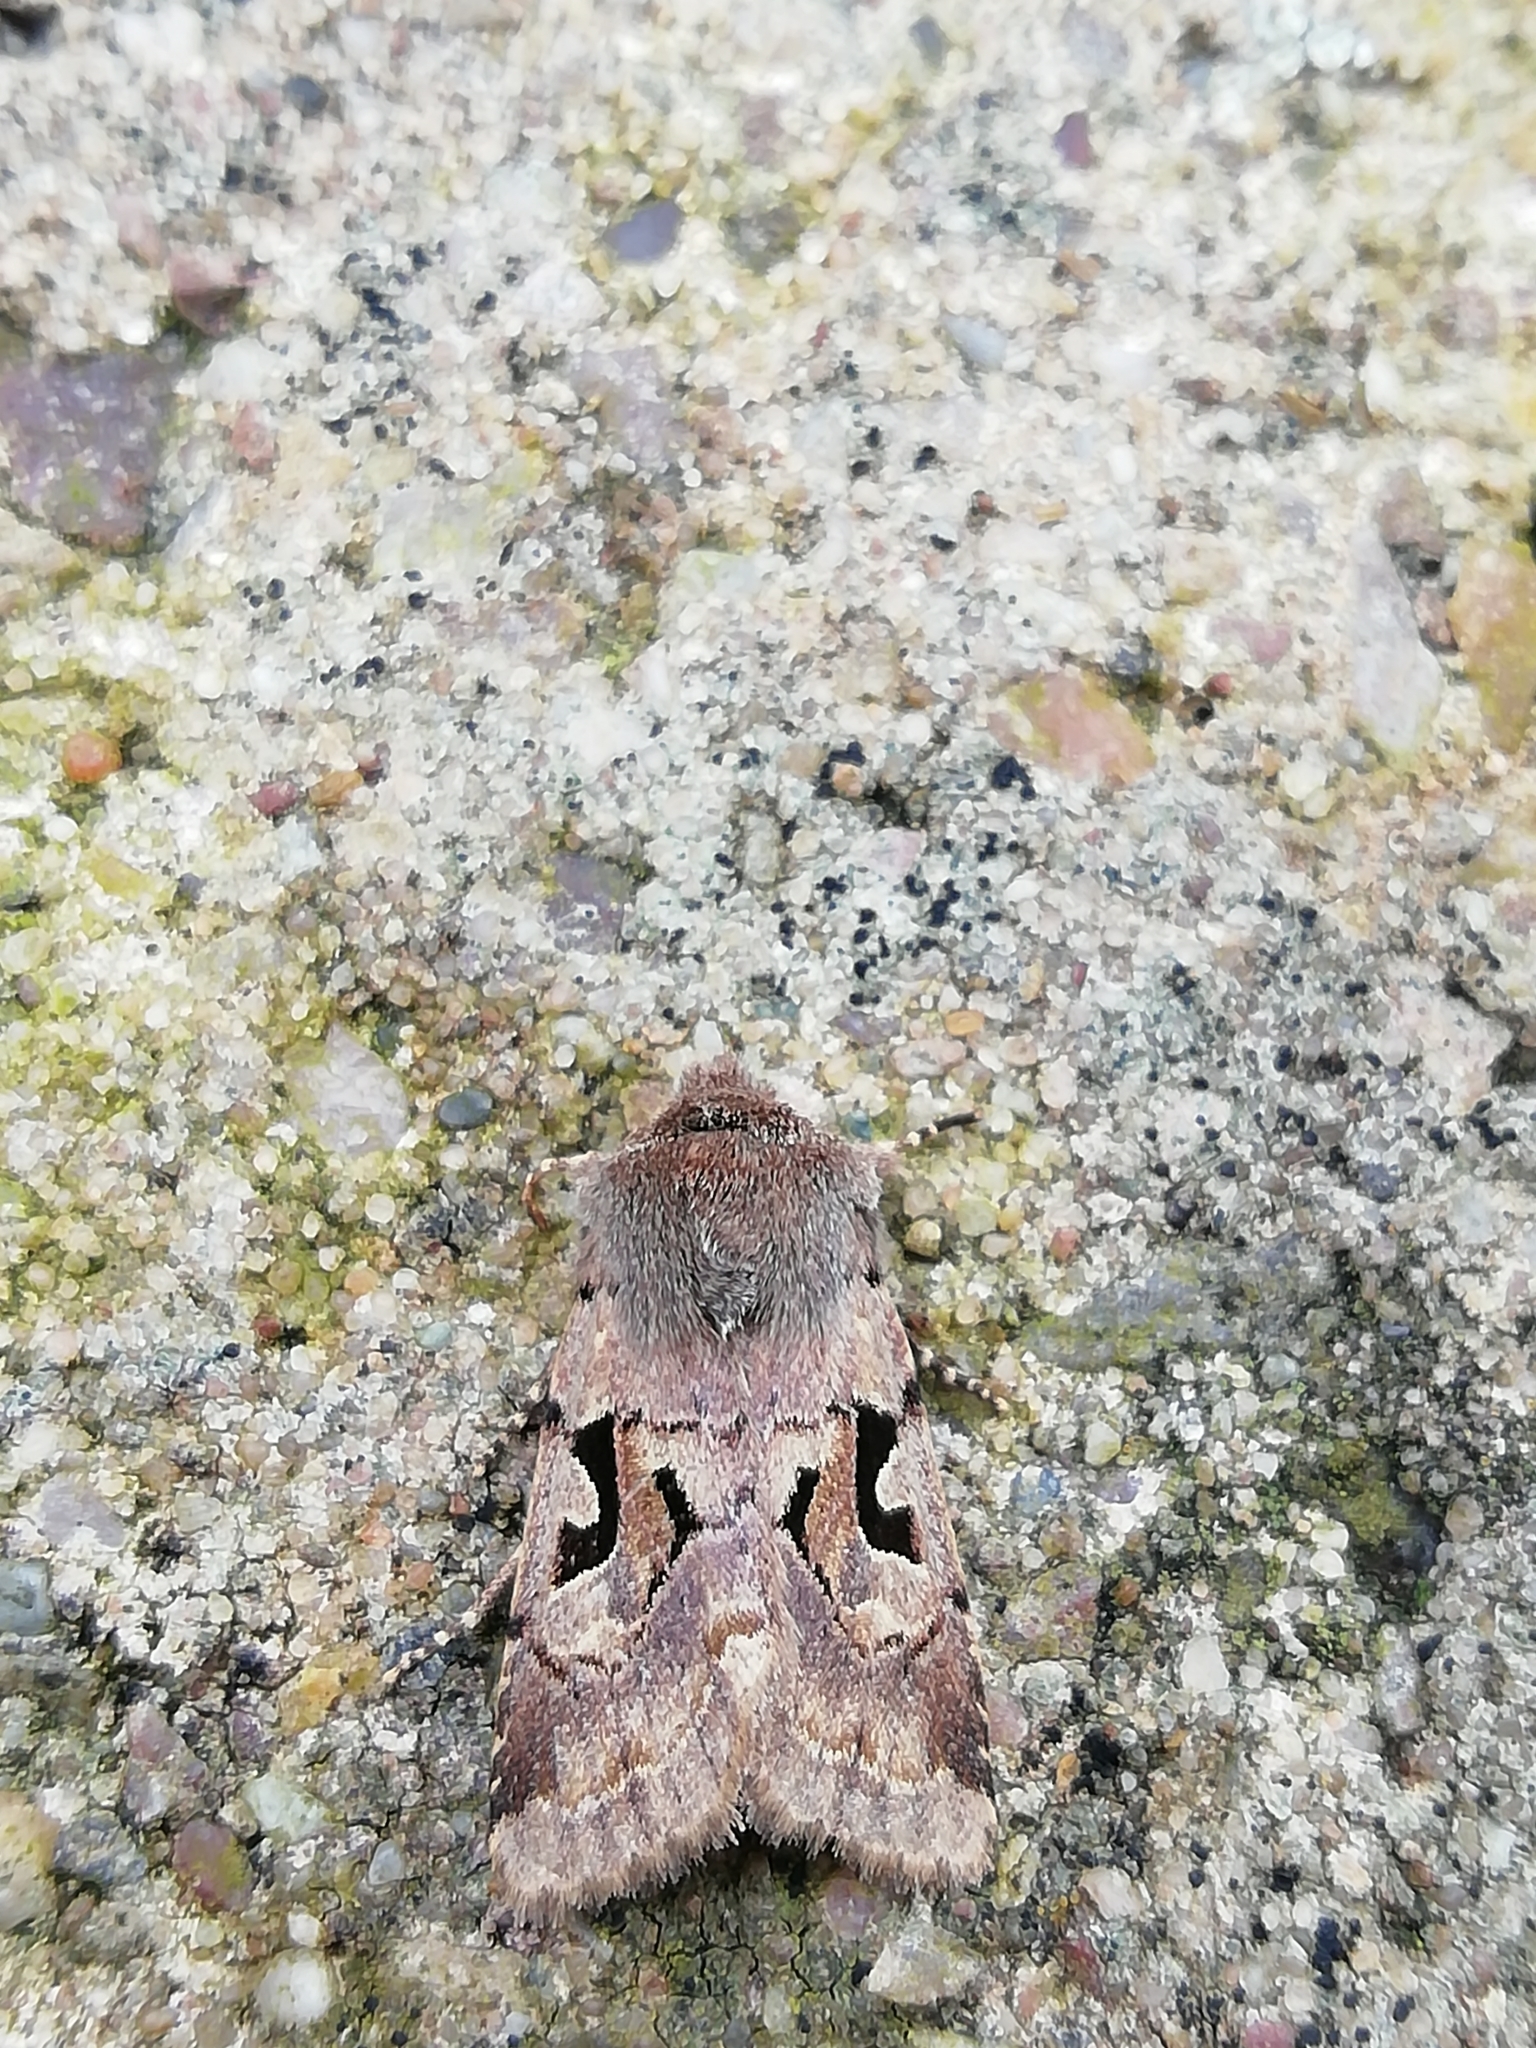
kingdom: Animalia
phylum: Arthropoda
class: Insecta
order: Lepidoptera
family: Noctuidae
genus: Orthosia
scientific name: Orthosia gothica
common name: Hebrew character
